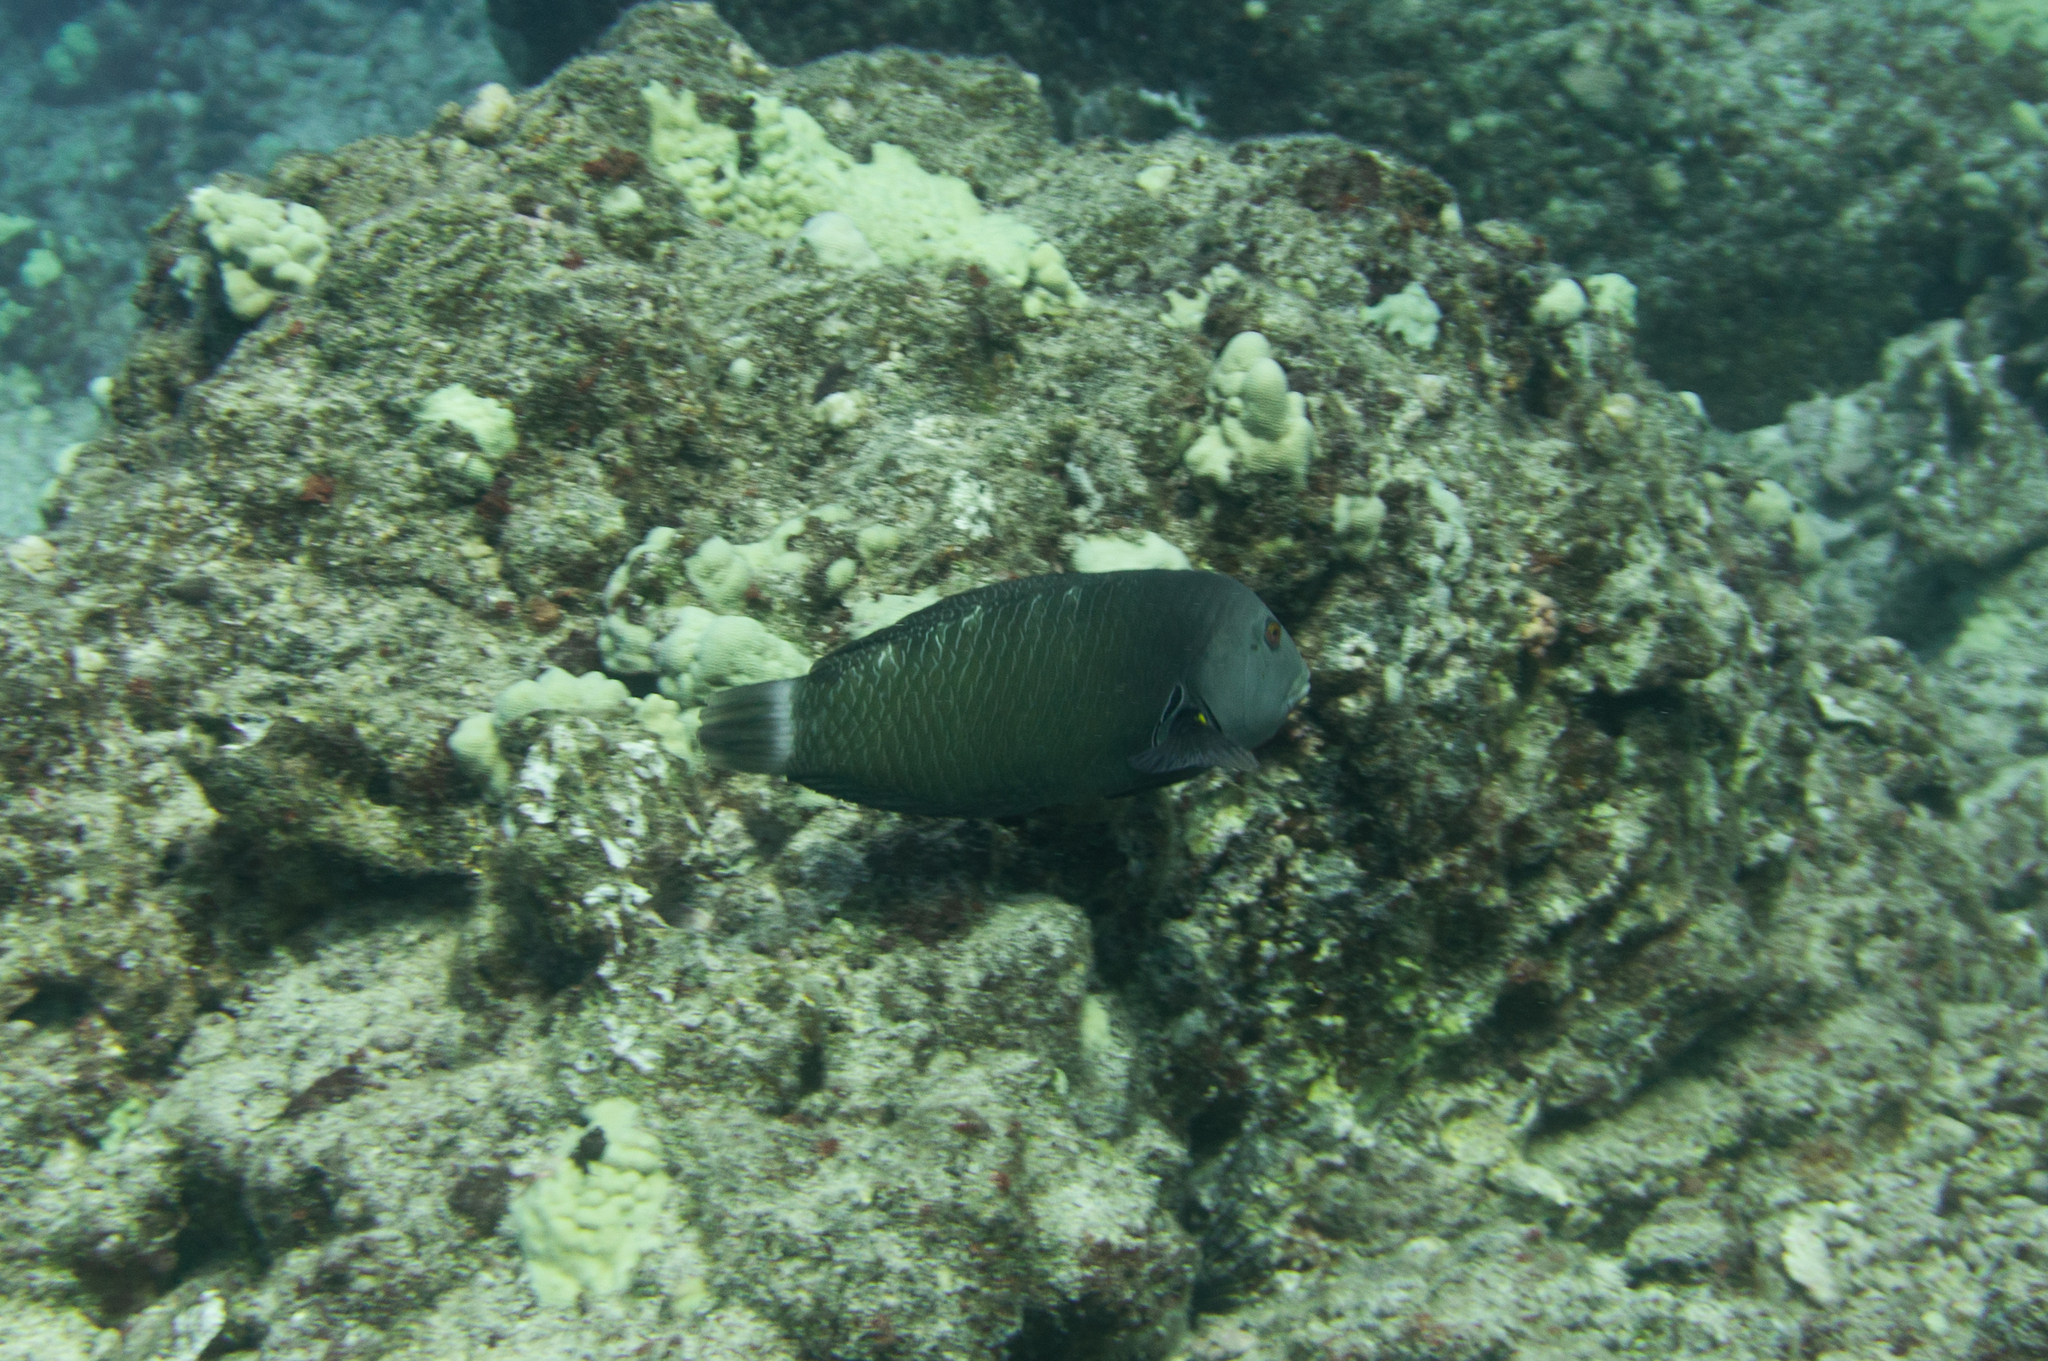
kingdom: Animalia
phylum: Chordata
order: Perciformes
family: Labridae
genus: Novaculichthys
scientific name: Novaculichthys taeniourus
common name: Rockmover wrasse
